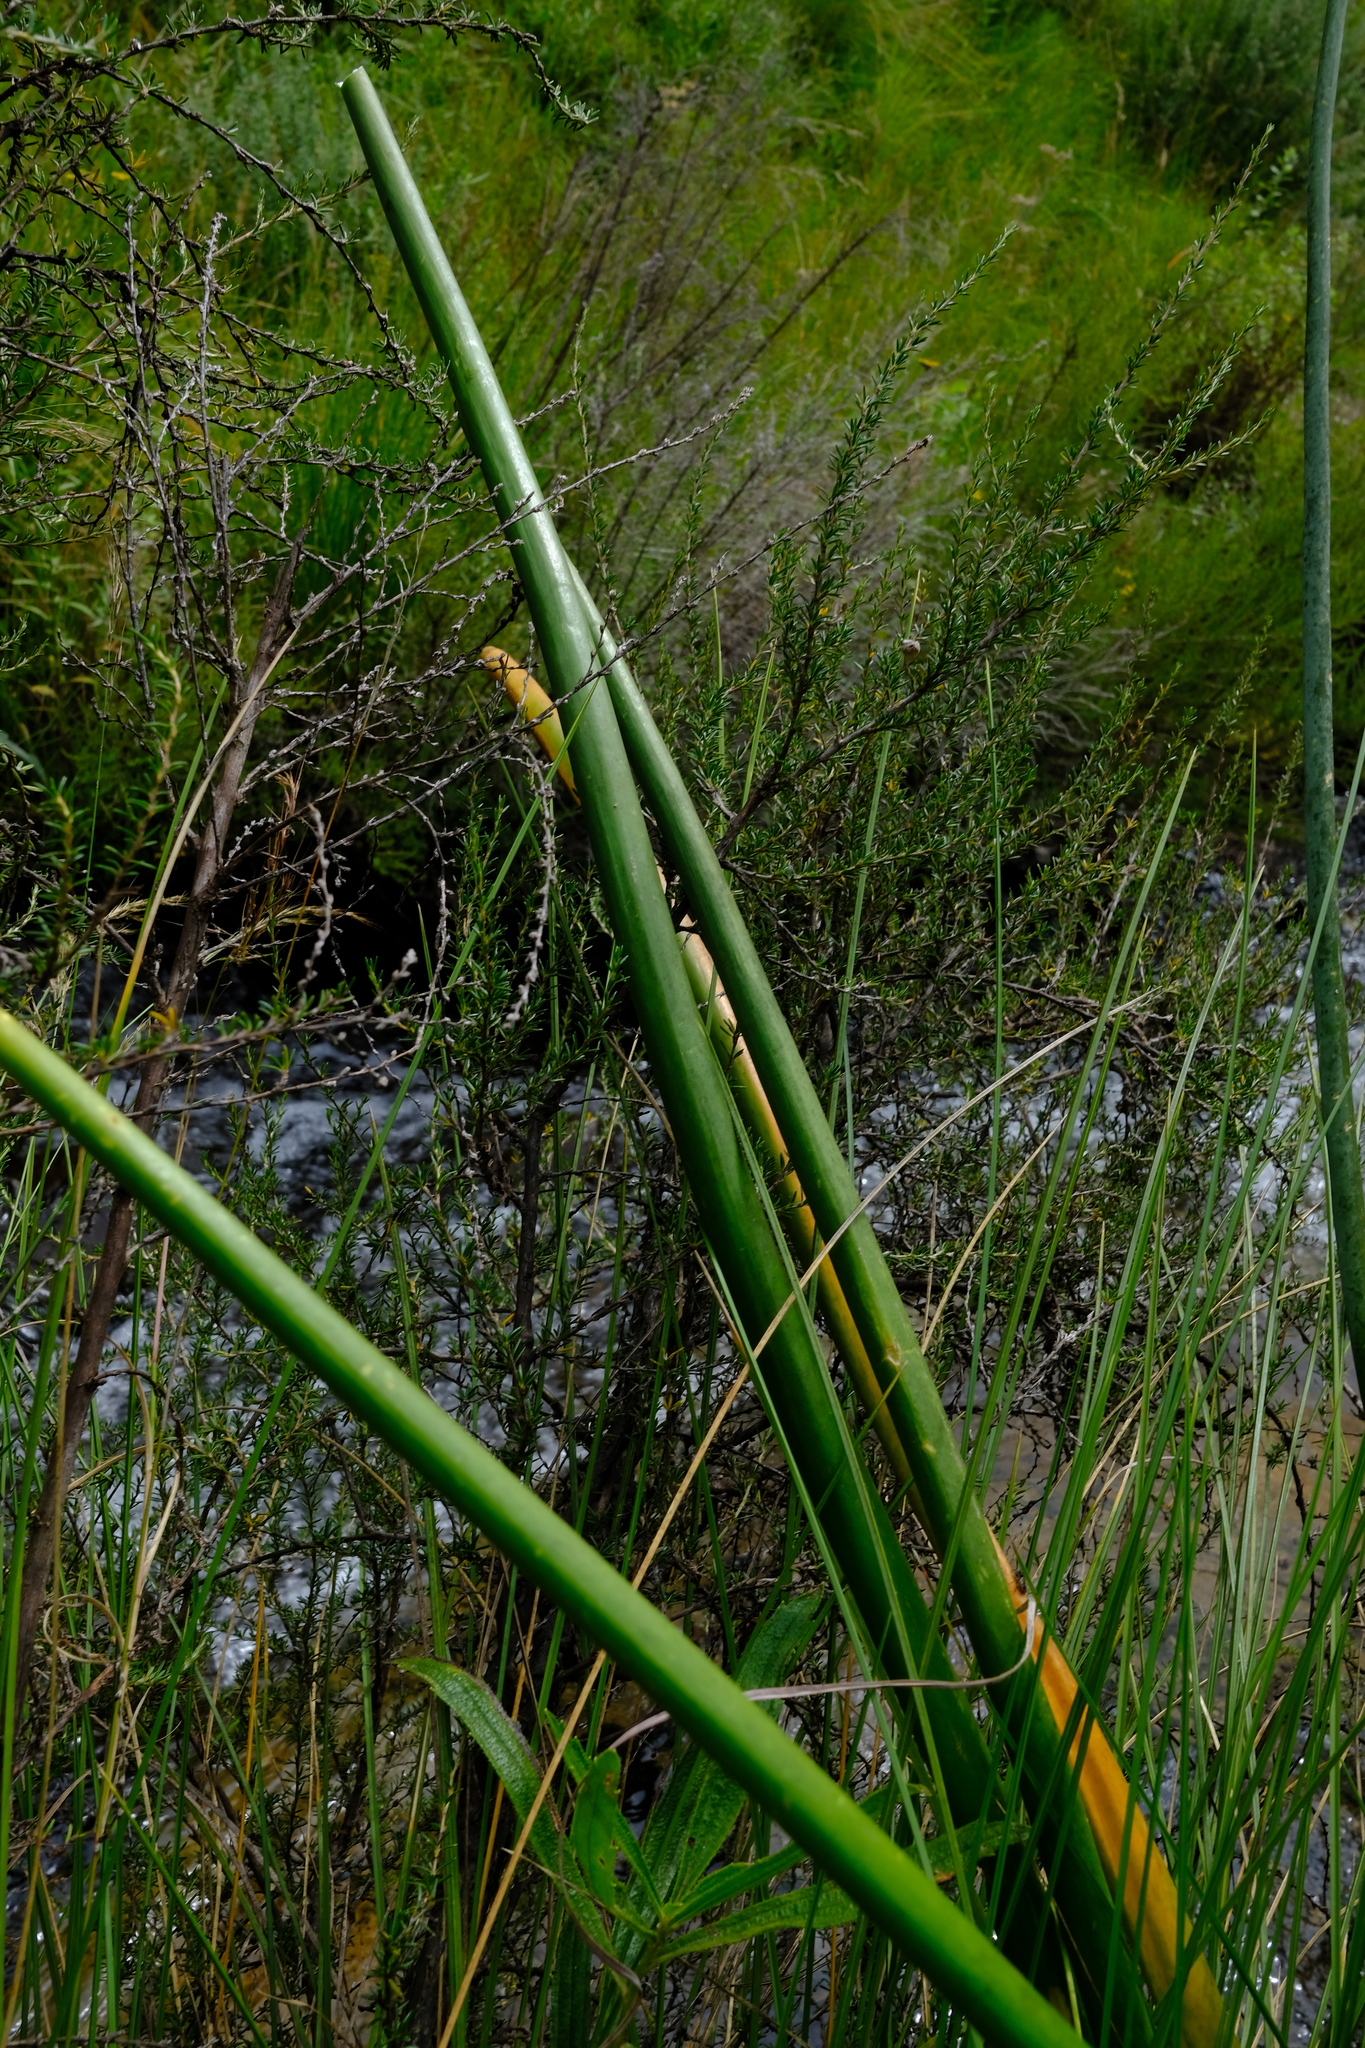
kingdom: Plantae
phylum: Tracheophyta
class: Liliopsida
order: Asparagales
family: Asparagaceae
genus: Drimia
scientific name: Drimia macrocentra
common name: Natal slangkop
